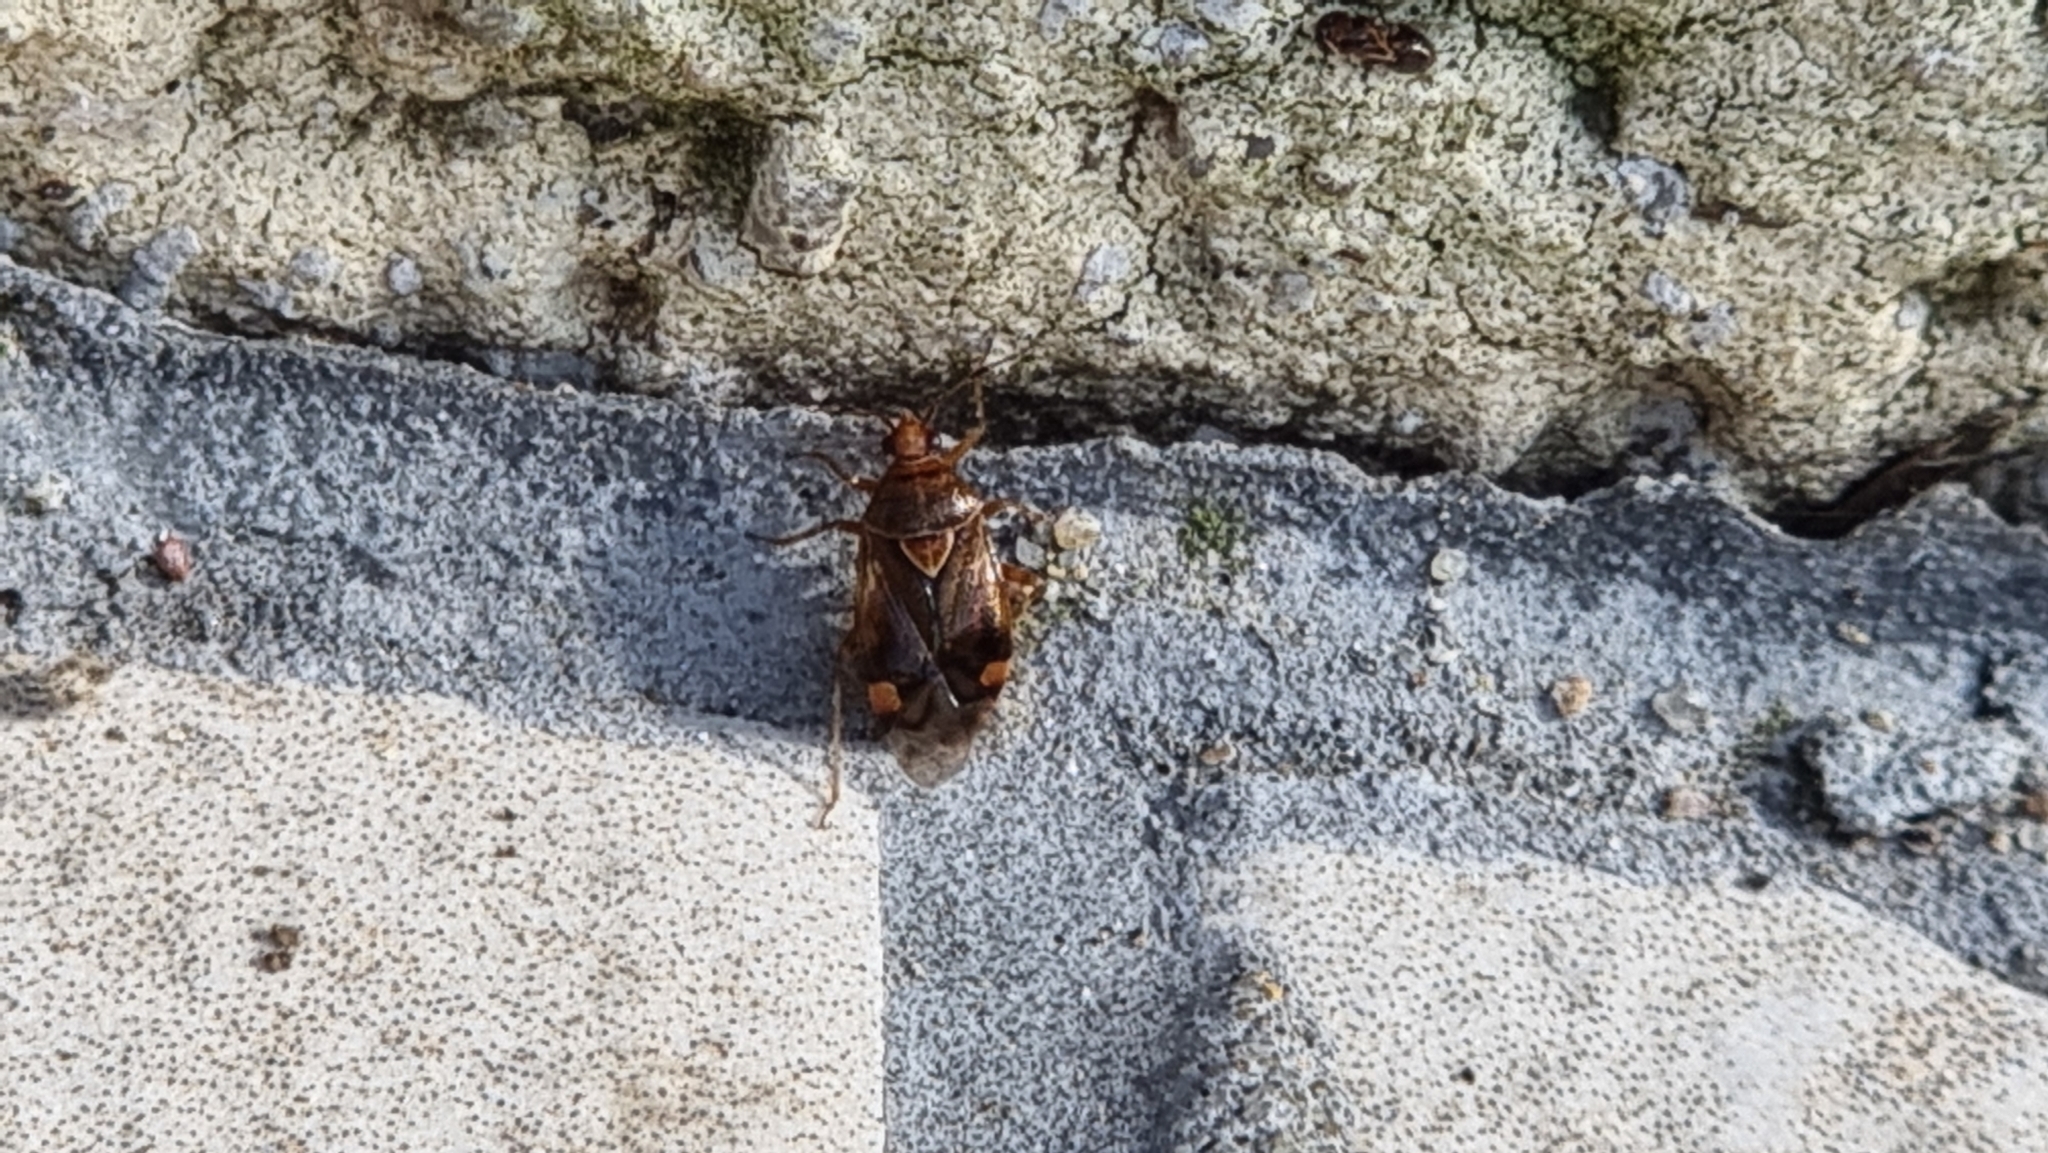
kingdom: Animalia
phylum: Arthropoda
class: Insecta
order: Hemiptera
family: Miridae
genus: Deraeocoris
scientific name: Deraeocoris flavilinea
